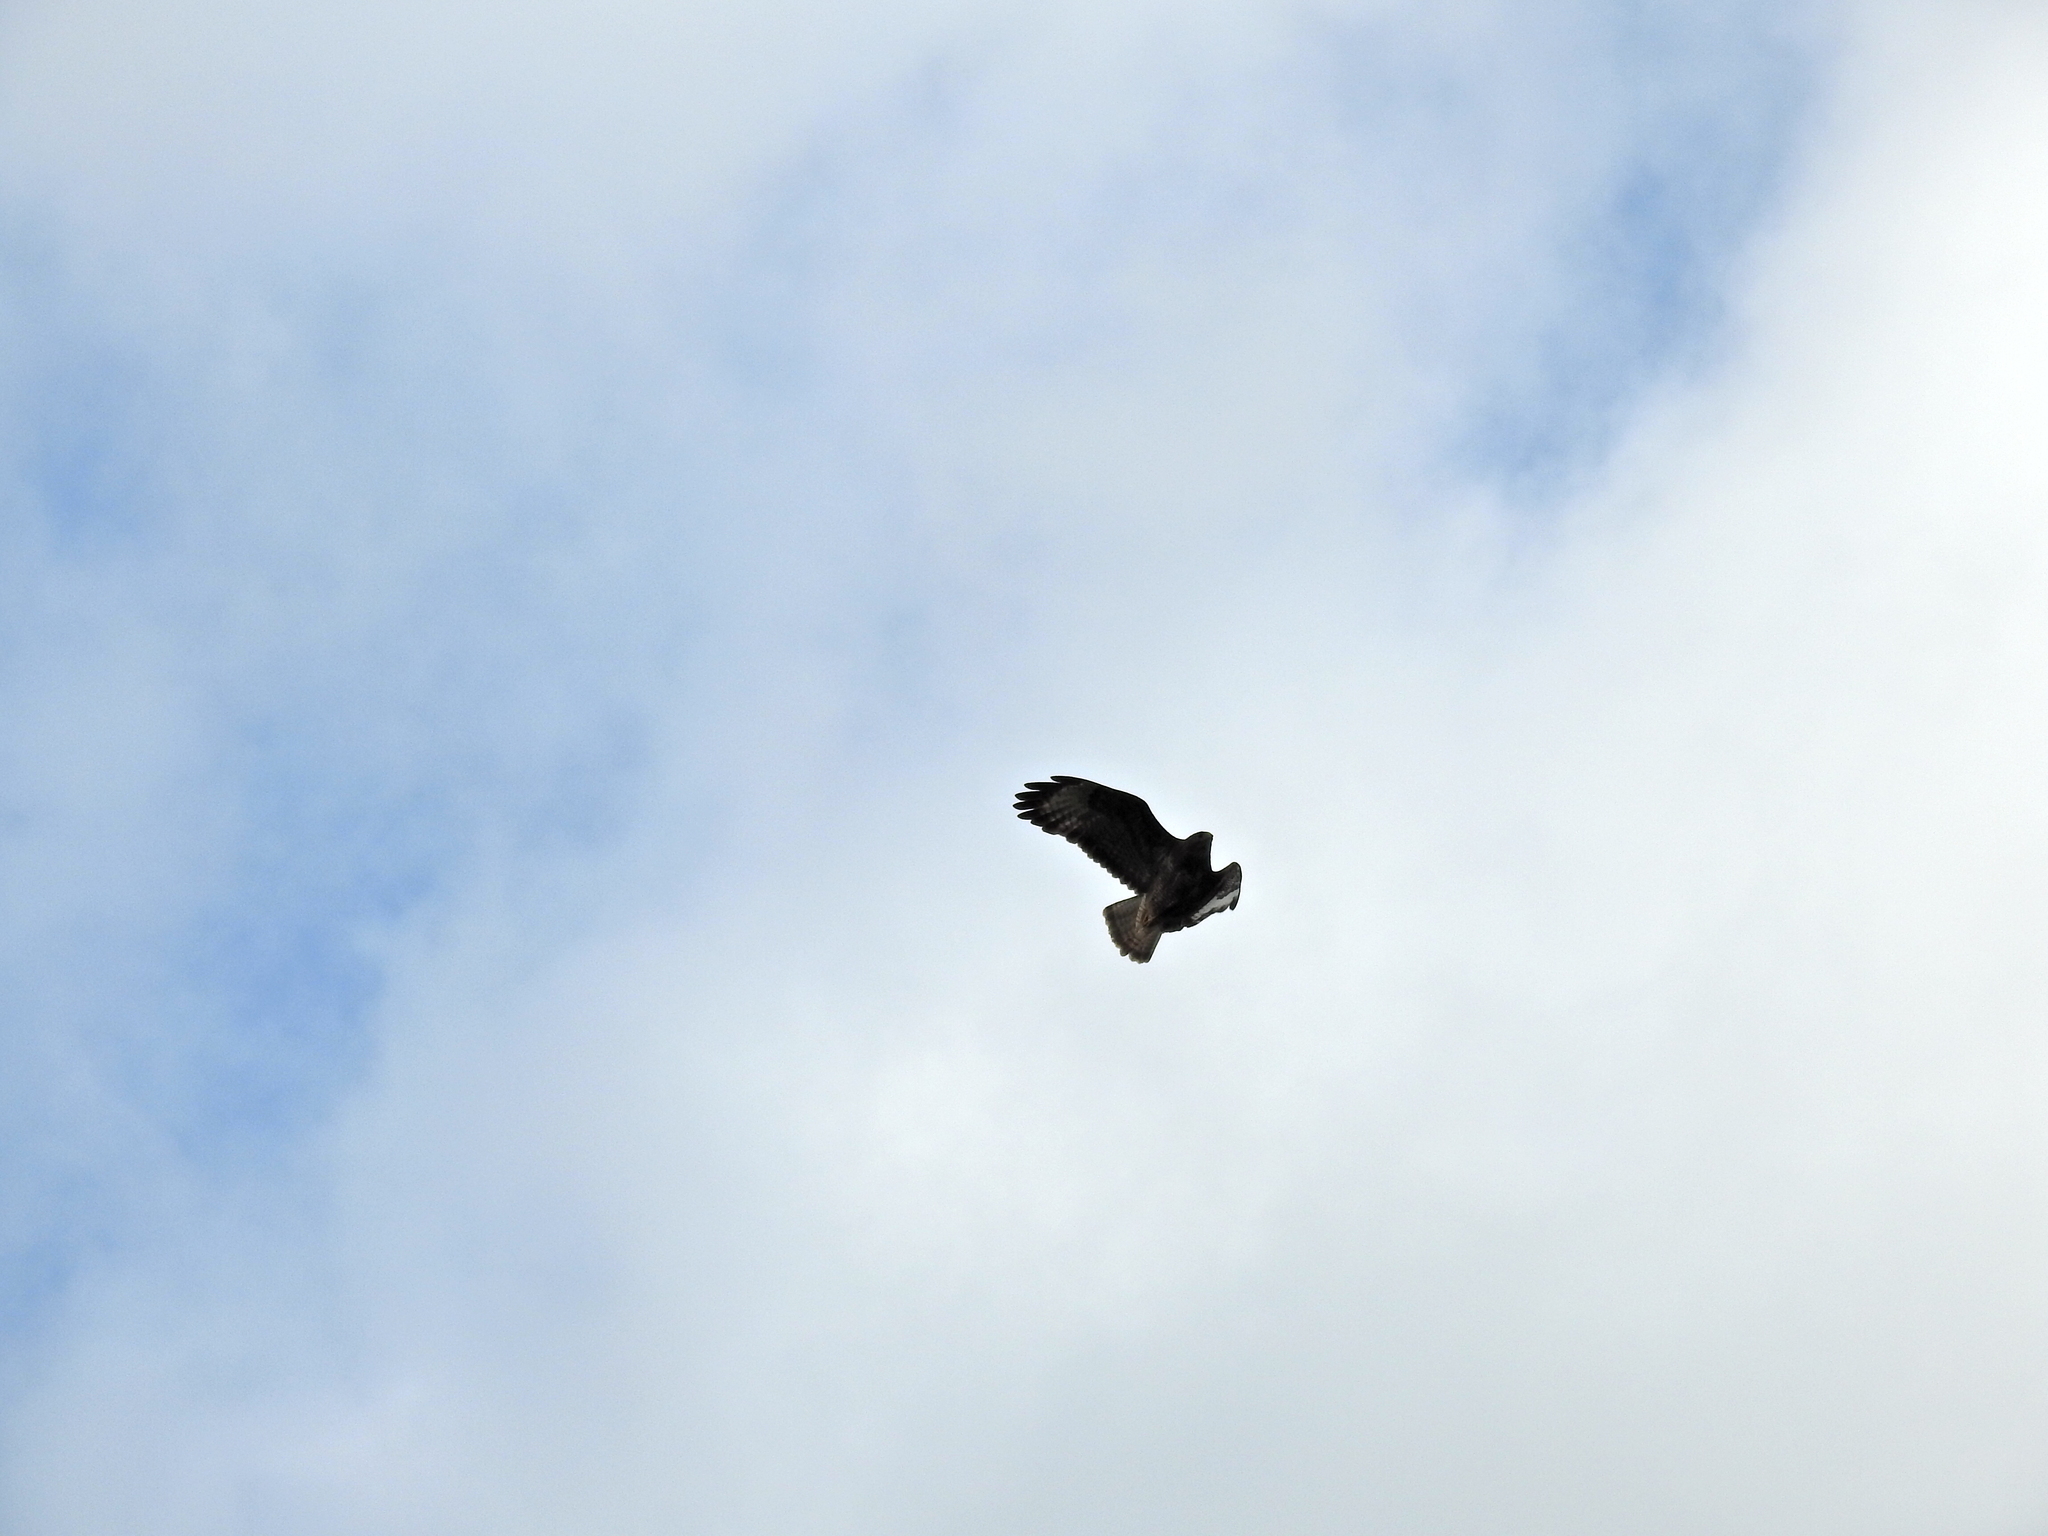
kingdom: Animalia
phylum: Chordata
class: Aves
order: Accipitriformes
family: Accipitridae
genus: Buteo
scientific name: Buteo buteo
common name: Common buzzard
